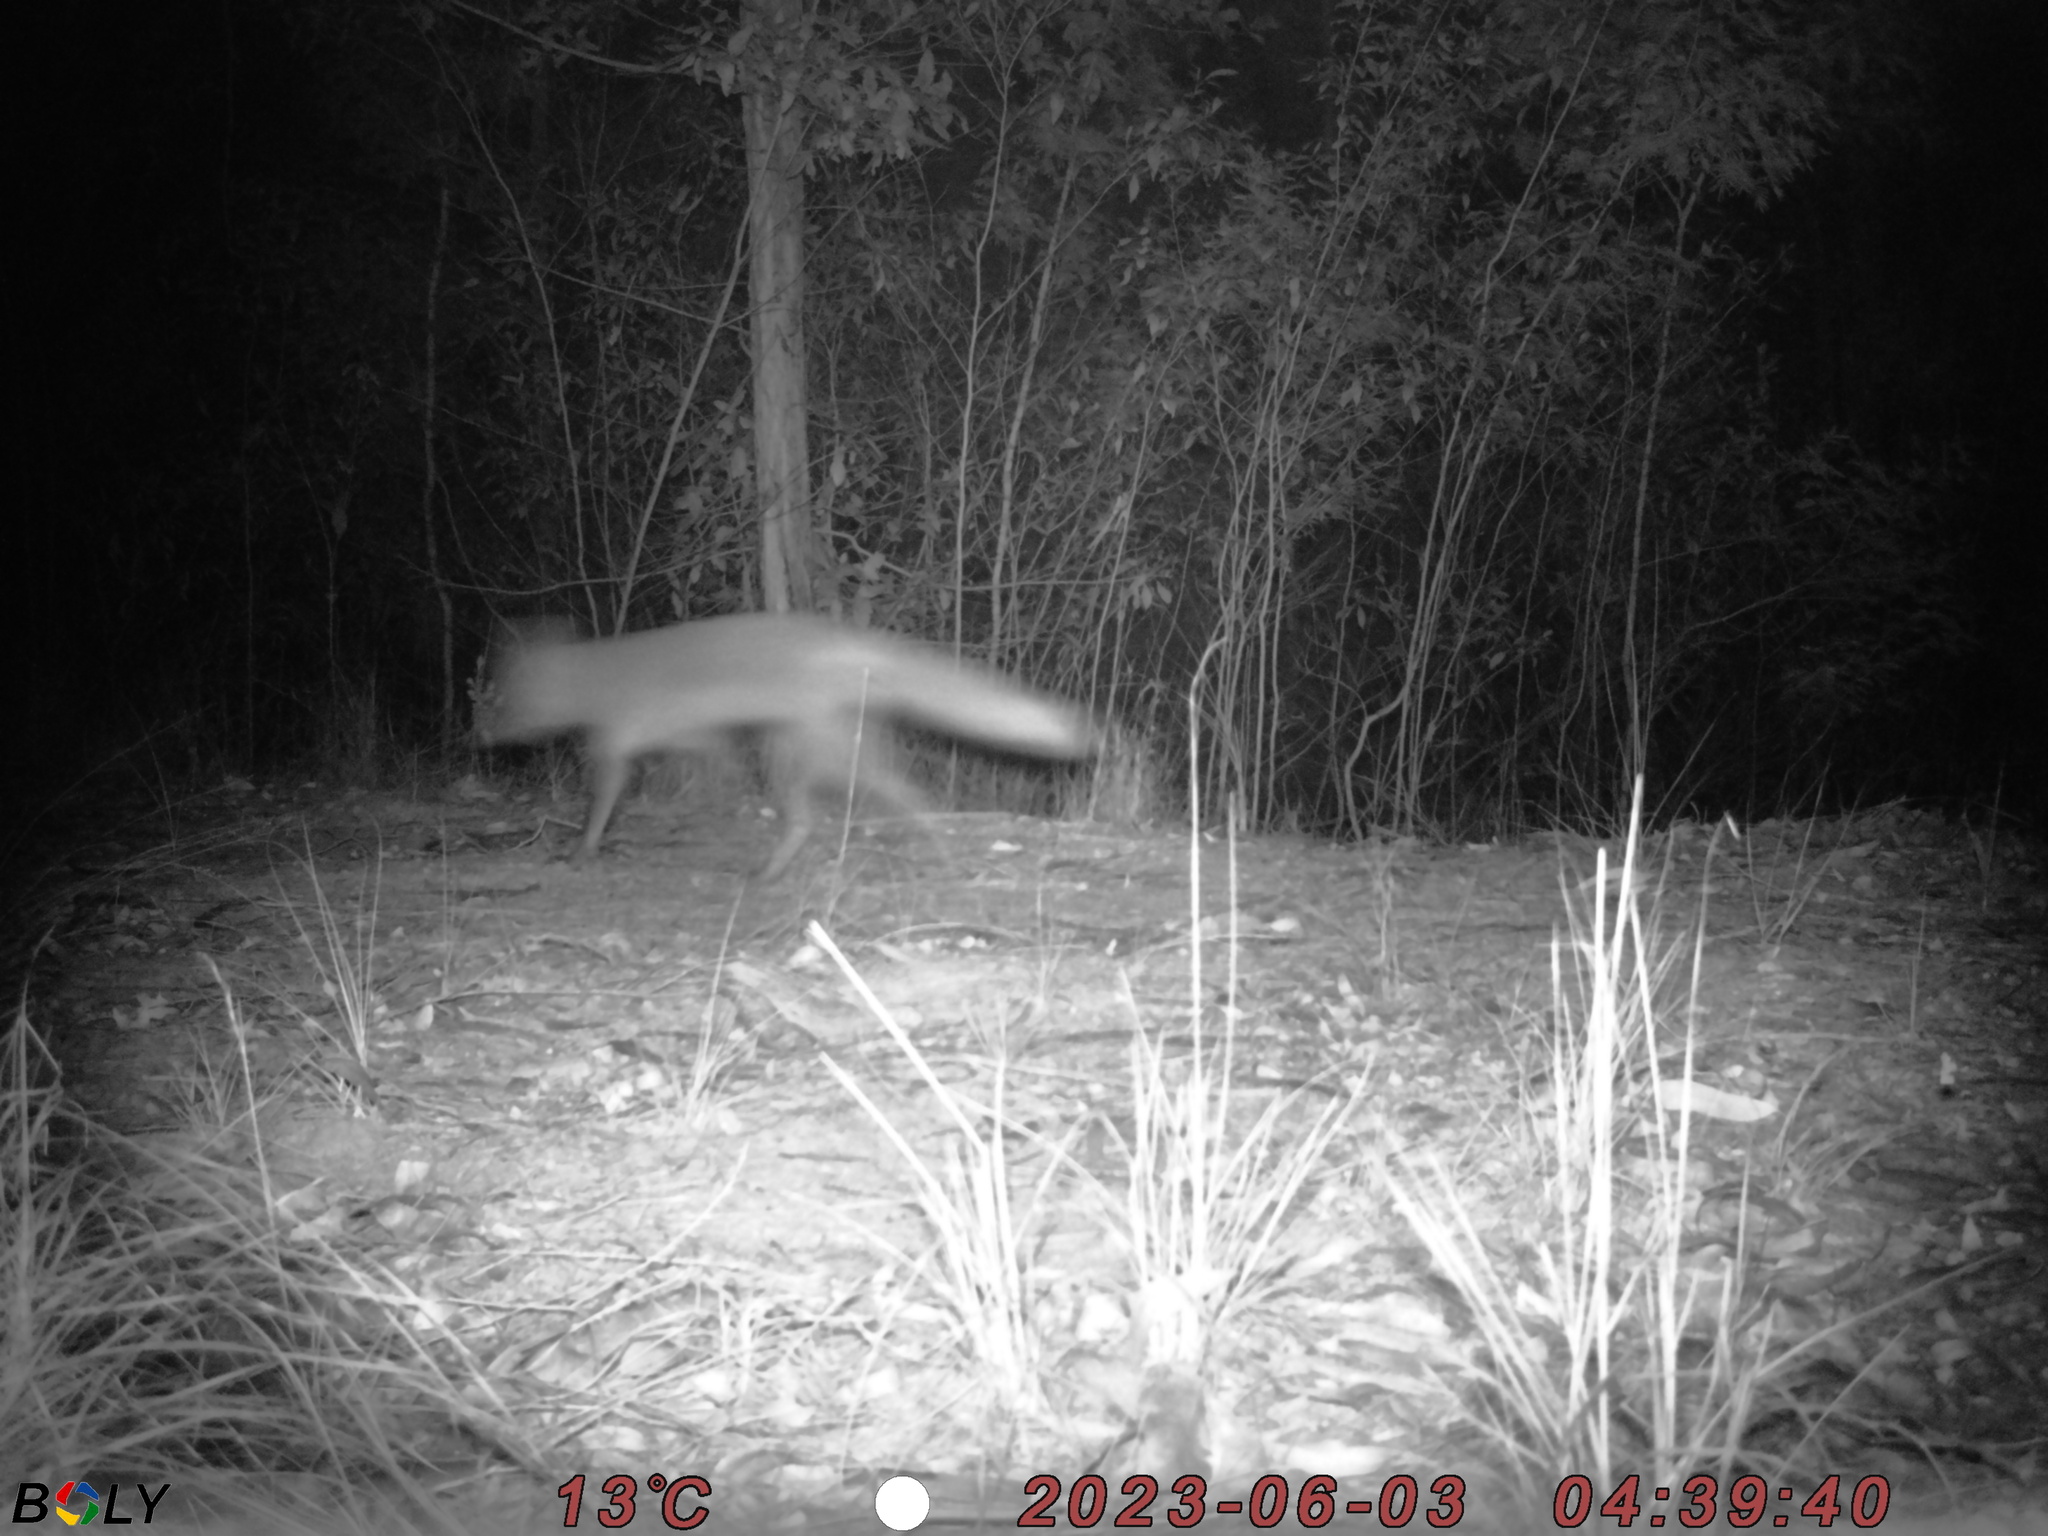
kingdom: Animalia
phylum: Chordata
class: Mammalia
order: Carnivora
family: Canidae
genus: Vulpes
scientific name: Vulpes vulpes
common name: Red fox
